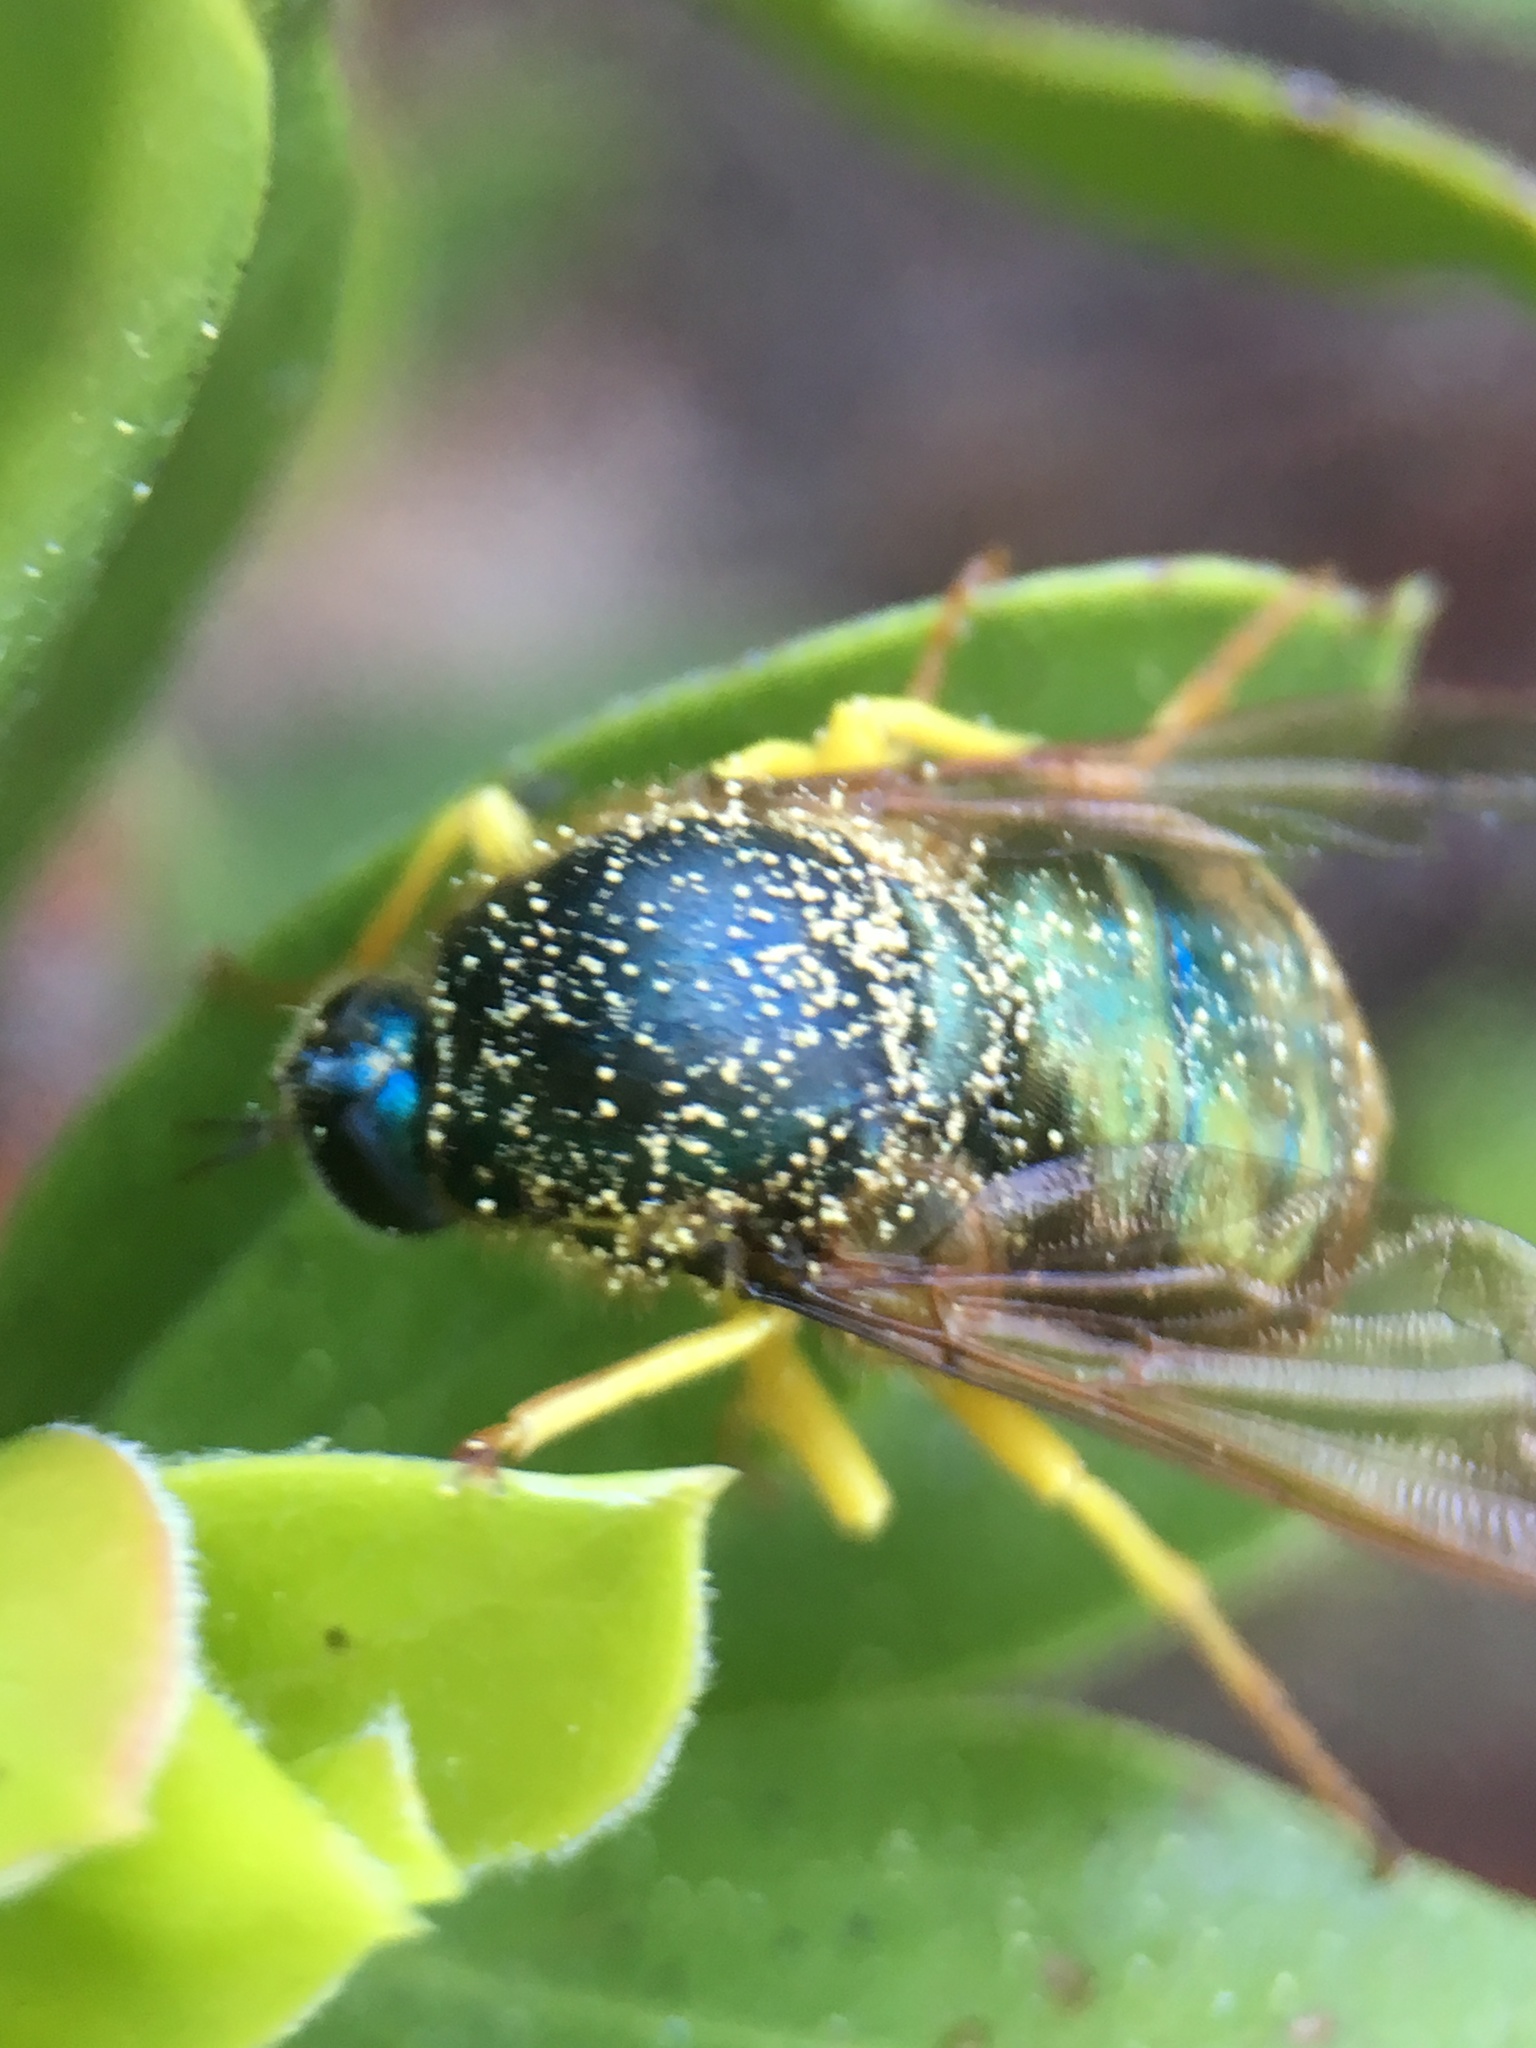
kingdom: Animalia
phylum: Arthropoda
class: Insecta
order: Diptera
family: Acroceridae
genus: Eulonchus
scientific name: Eulonchus sapphirinus
